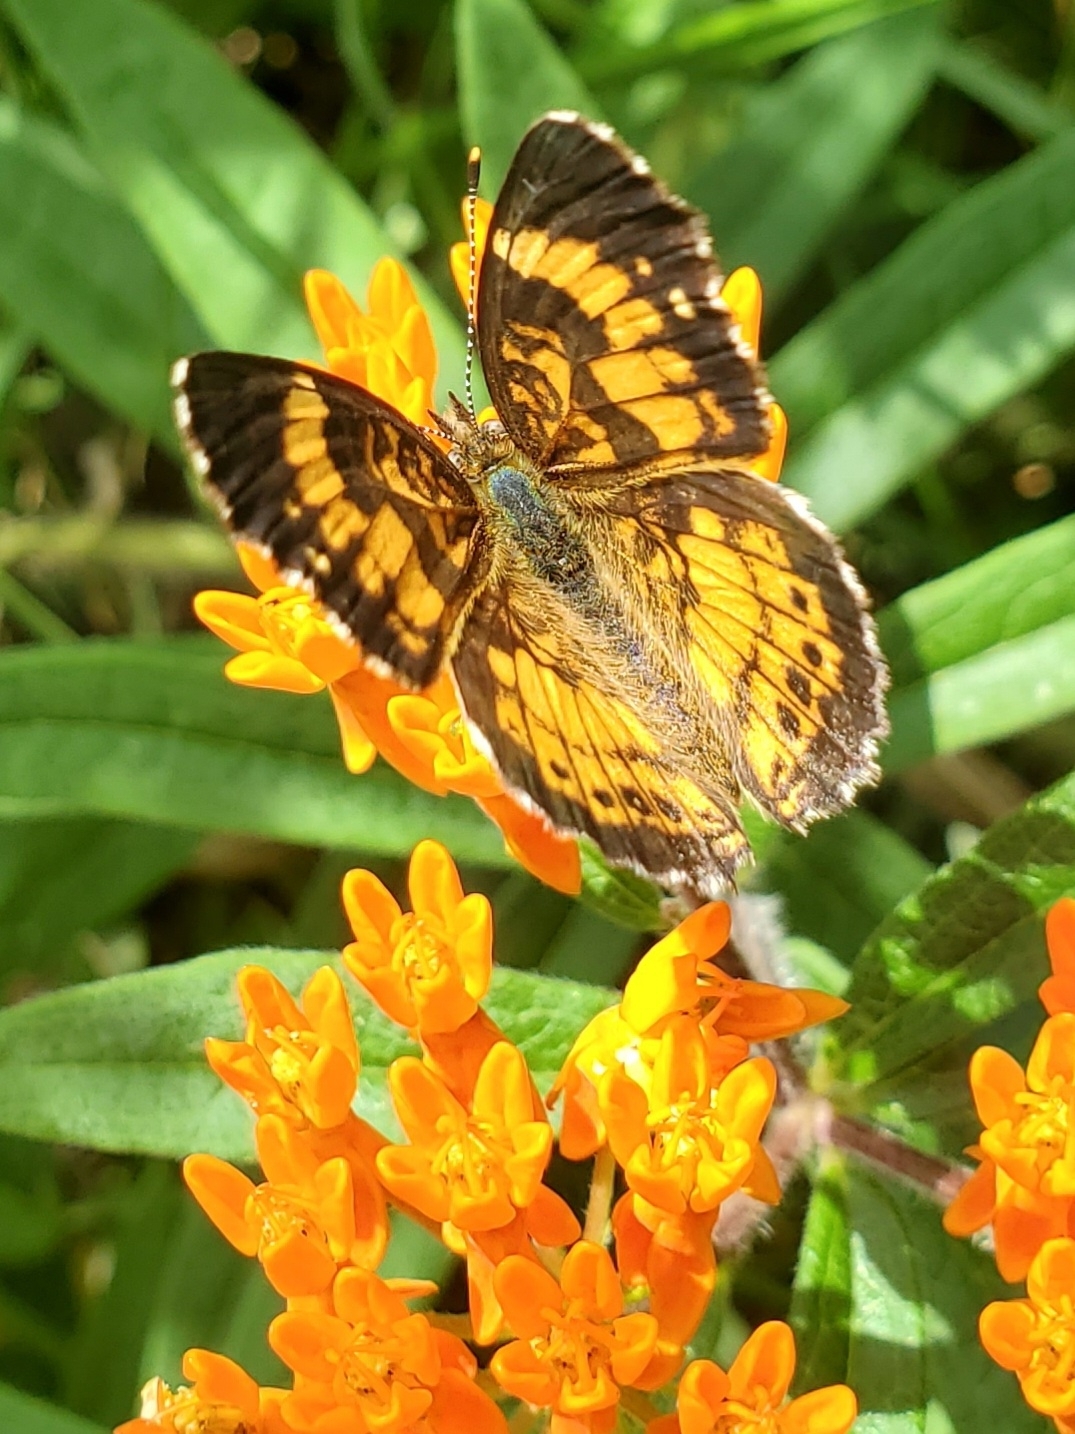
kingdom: Animalia
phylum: Arthropoda
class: Insecta
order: Lepidoptera
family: Nymphalidae
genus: Chlosyne
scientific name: Chlosyne nycteis
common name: Silvery checkerspot
